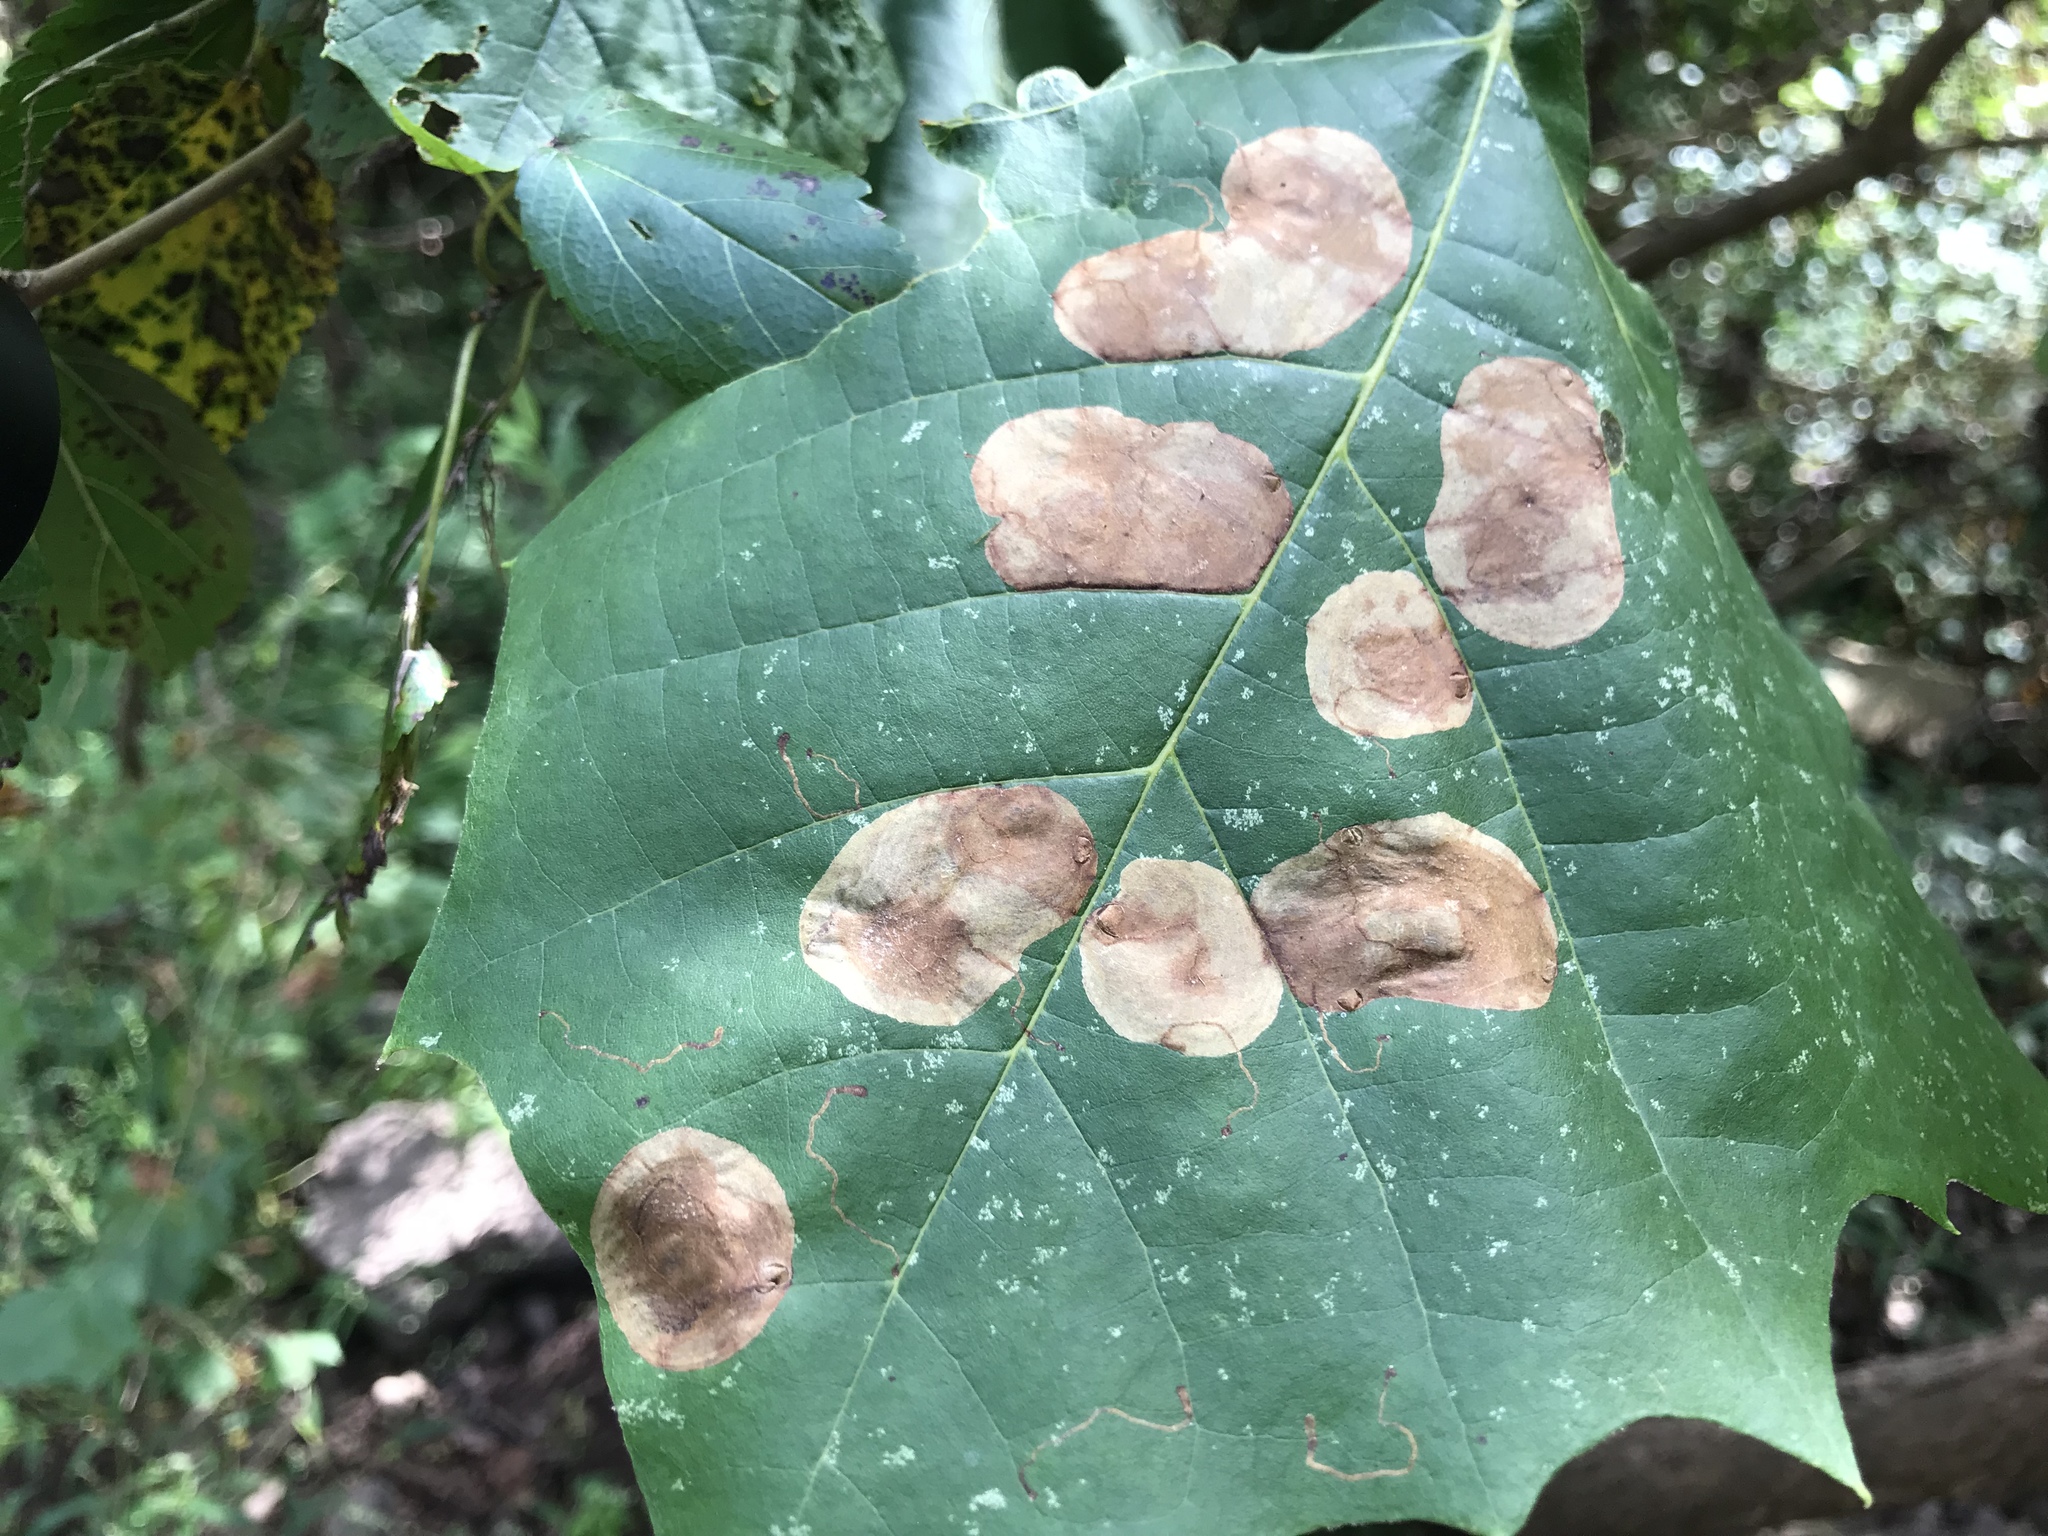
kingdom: Animalia
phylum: Arthropoda
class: Insecta
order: Lepidoptera
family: Nepticulidae
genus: Ectoedemia
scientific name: Ectoedemia platanella
